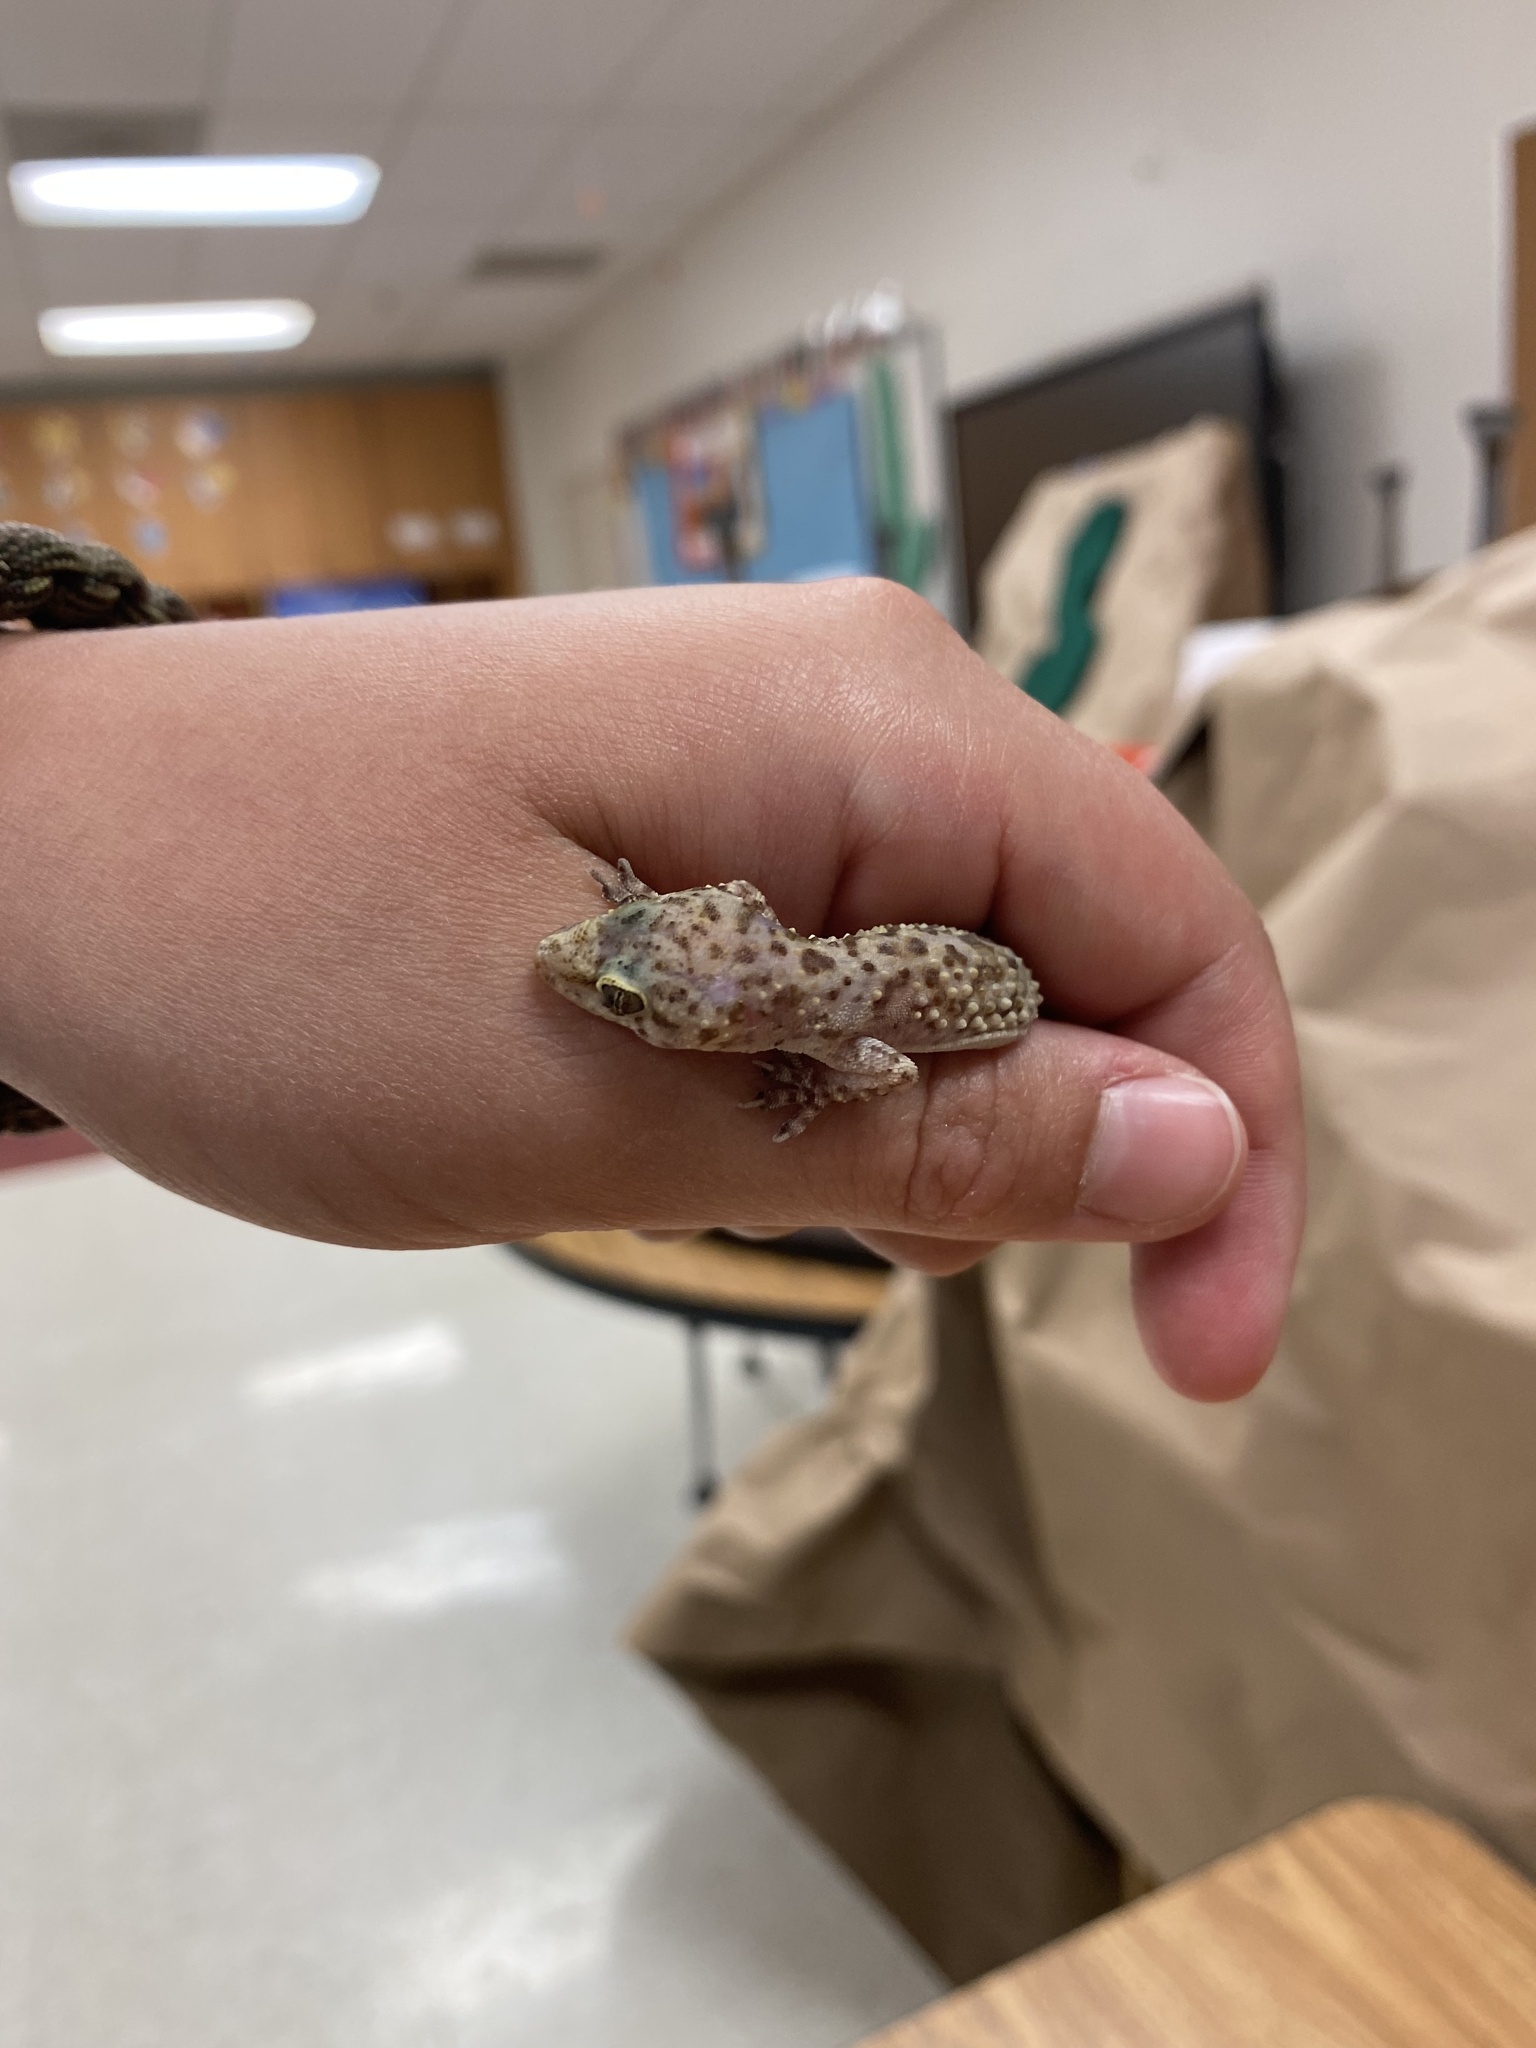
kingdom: Animalia
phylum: Chordata
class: Squamata
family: Gekkonidae
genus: Hemidactylus
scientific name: Hemidactylus turcicus
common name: Turkish gecko
